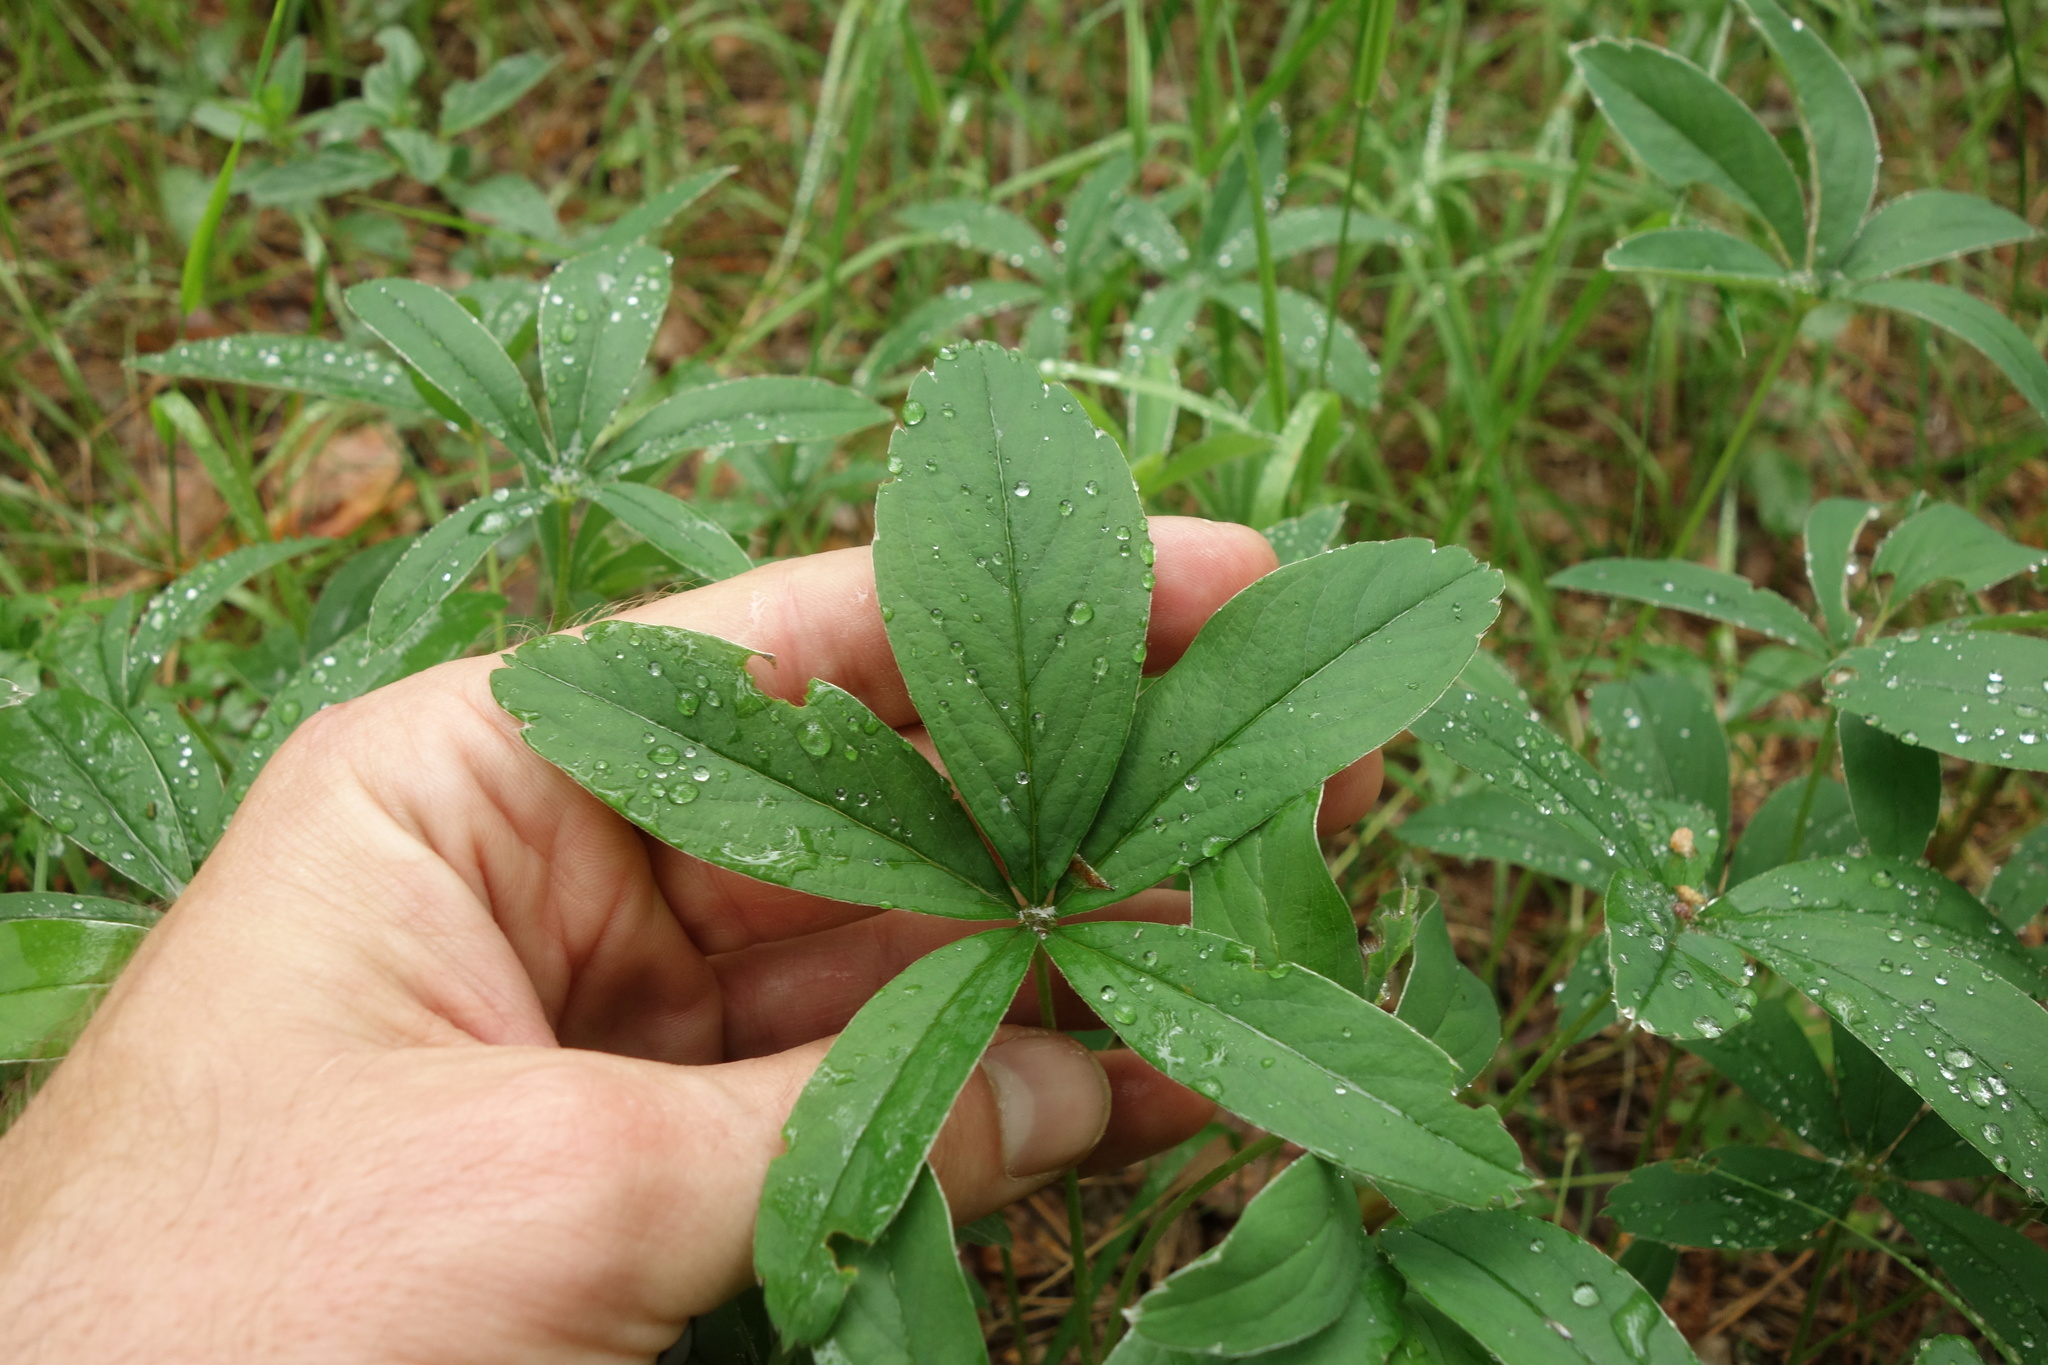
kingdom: Plantae
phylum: Tracheophyta
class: Magnoliopsida
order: Rosales
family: Rosaceae
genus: Potentilla
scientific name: Potentilla alba
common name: White cinquefoil
